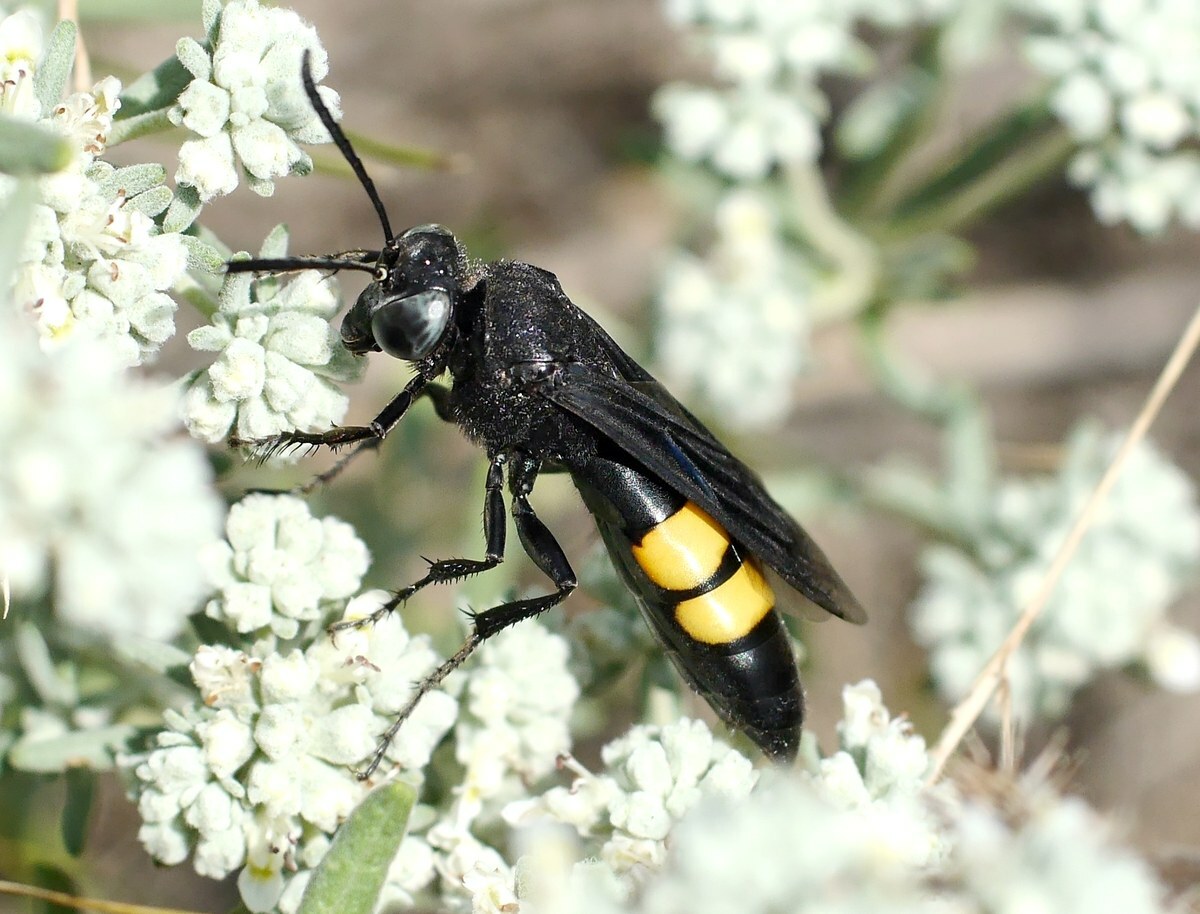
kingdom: Animalia
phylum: Arthropoda
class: Insecta
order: Hymenoptera
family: Crabronidae
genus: Stizoides
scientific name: Stizoides tridentatus
